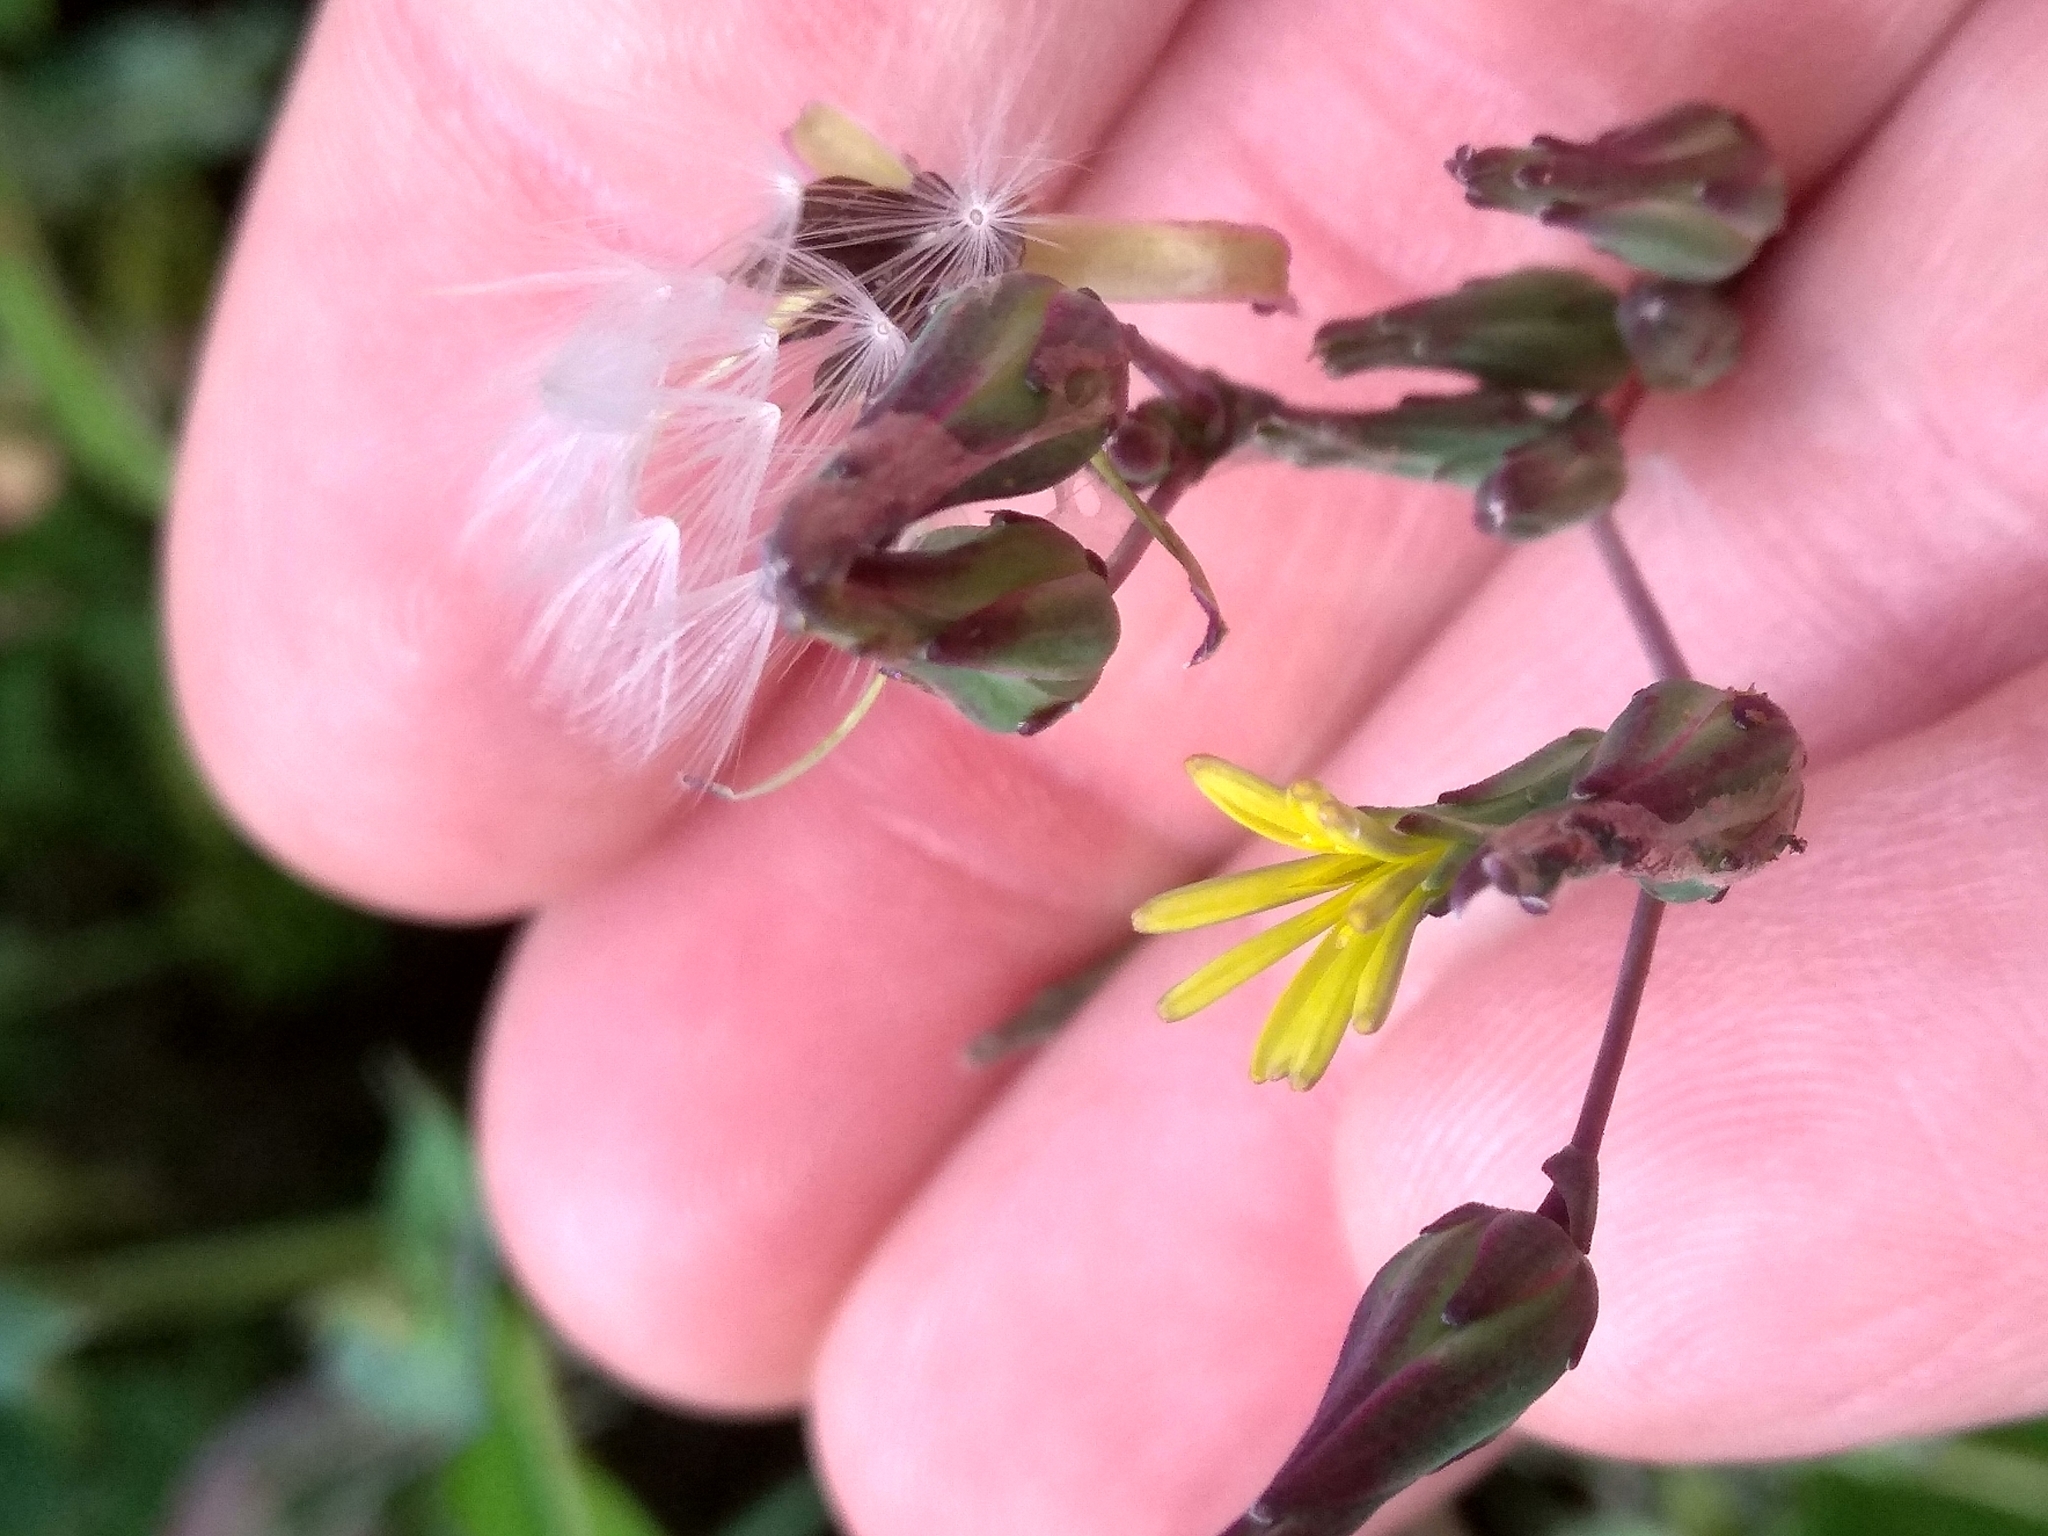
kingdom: Plantae
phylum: Tracheophyta
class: Magnoliopsida
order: Asterales
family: Asteraceae
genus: Lactuca
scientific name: Lactuca serriola
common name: Prickly lettuce
